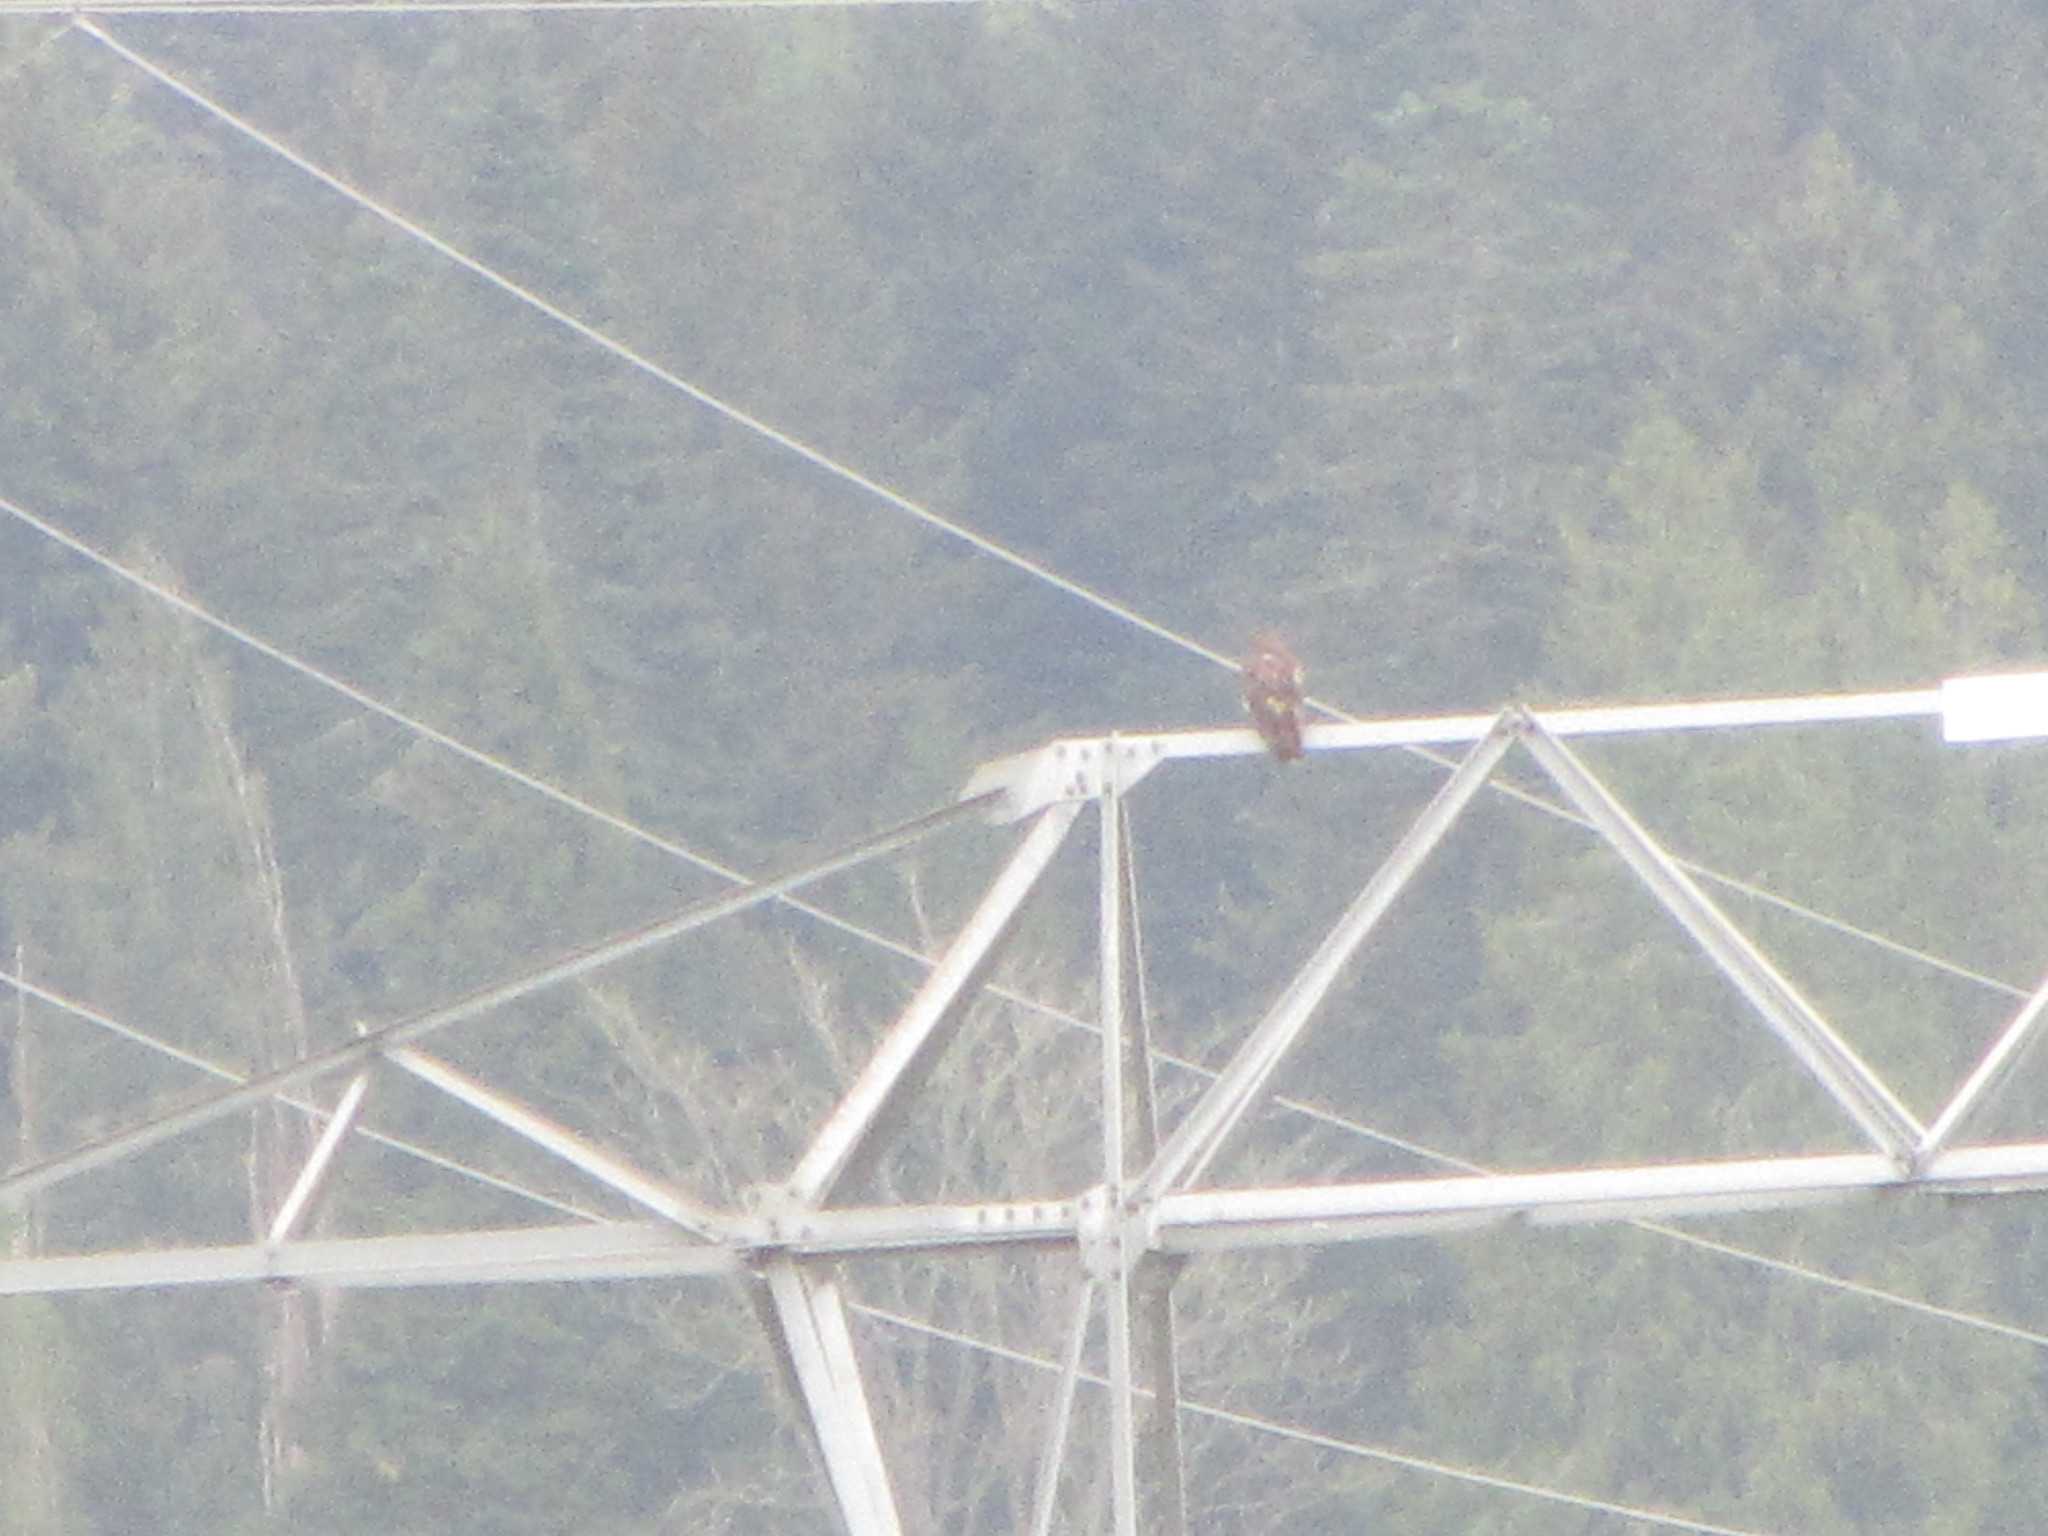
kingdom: Animalia
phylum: Chordata
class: Aves
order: Accipitriformes
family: Accipitridae
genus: Buteo
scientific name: Buteo jamaicensis
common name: Red-tailed hawk
